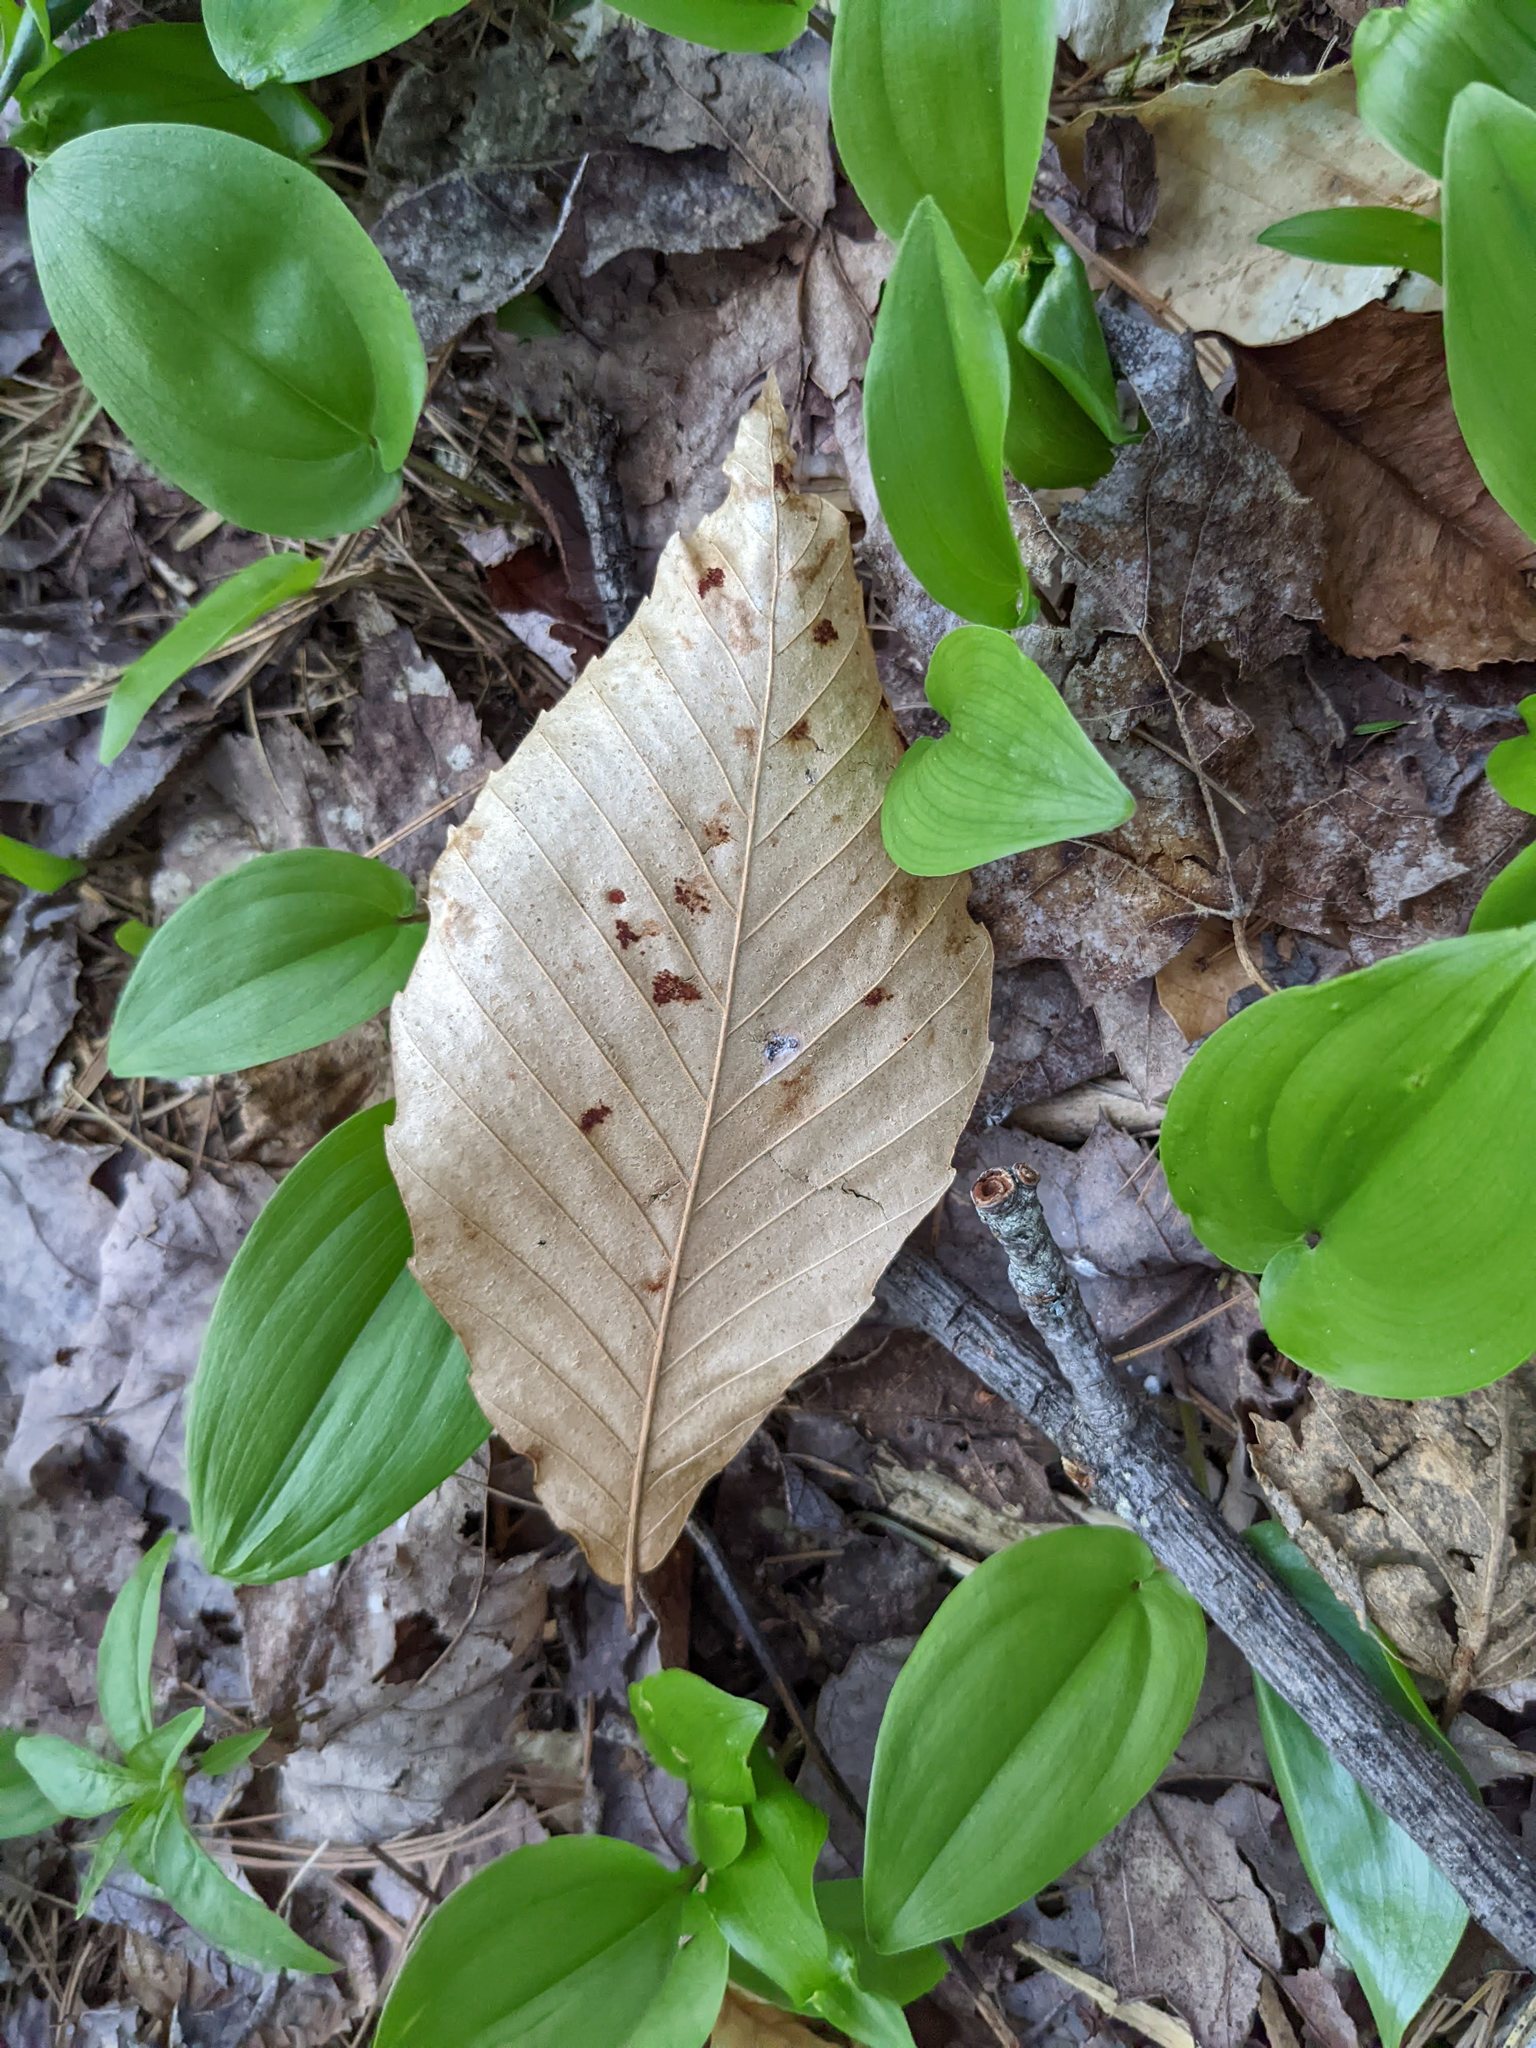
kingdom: Animalia
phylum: Arthropoda
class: Arachnida
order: Trombidiformes
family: Eriophyidae
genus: Acalitus
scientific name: Acalitus
